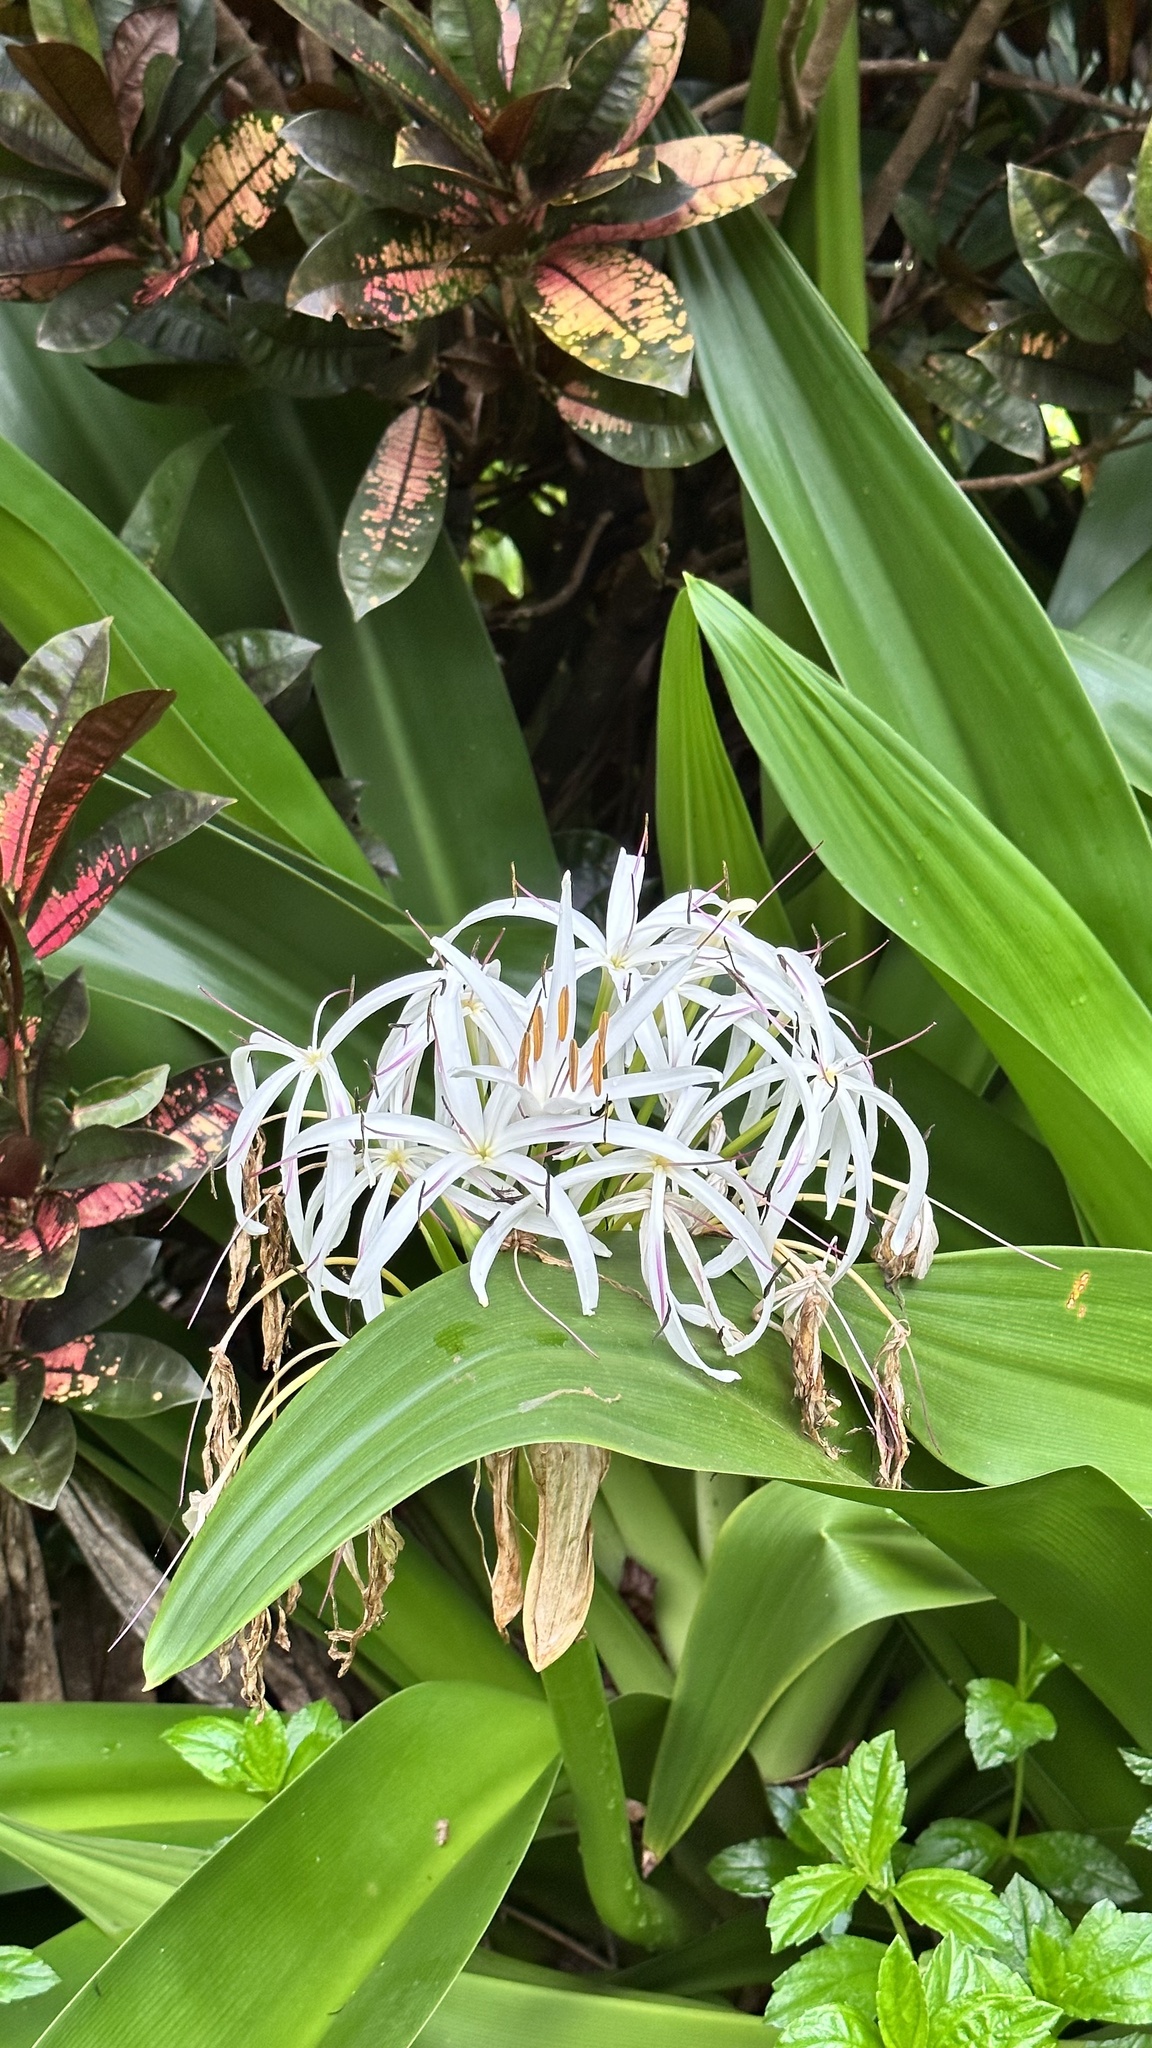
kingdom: Plantae
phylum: Tracheophyta
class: Liliopsida
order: Asparagales
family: Amaryllidaceae
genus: Crinum
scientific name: Crinum asiaticum
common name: Poisonbulb
